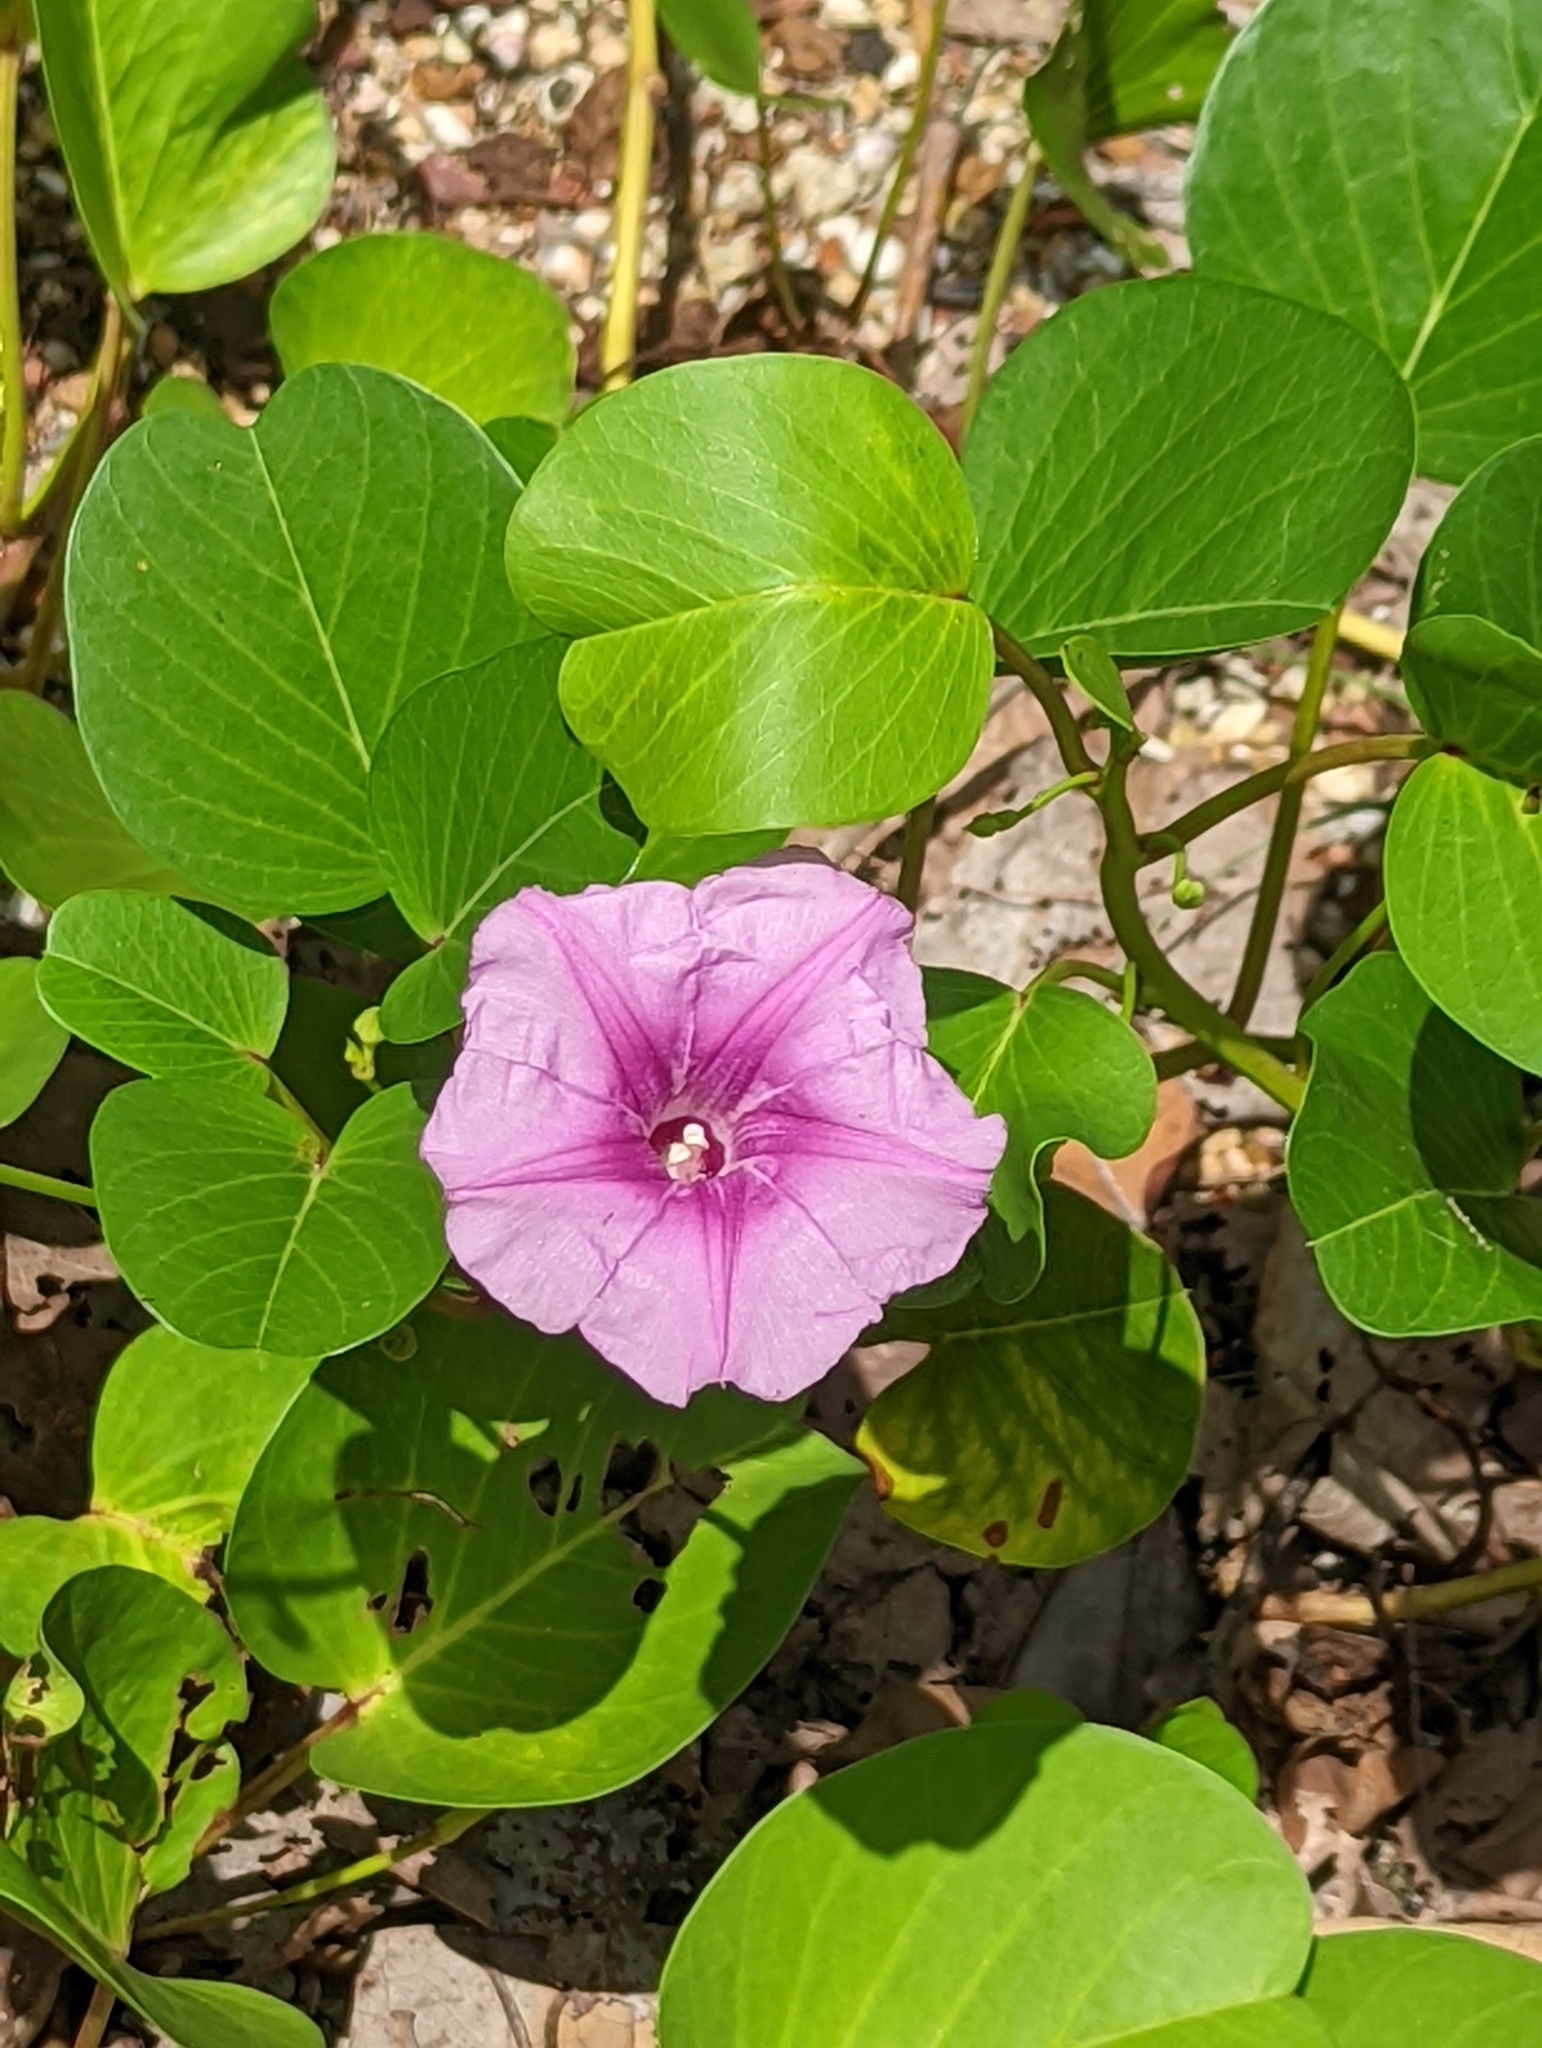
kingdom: Plantae
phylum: Tracheophyta
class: Magnoliopsida
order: Solanales
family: Convolvulaceae
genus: Ipomoea
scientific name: Ipomoea pes-caprae
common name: Beach morning glory
